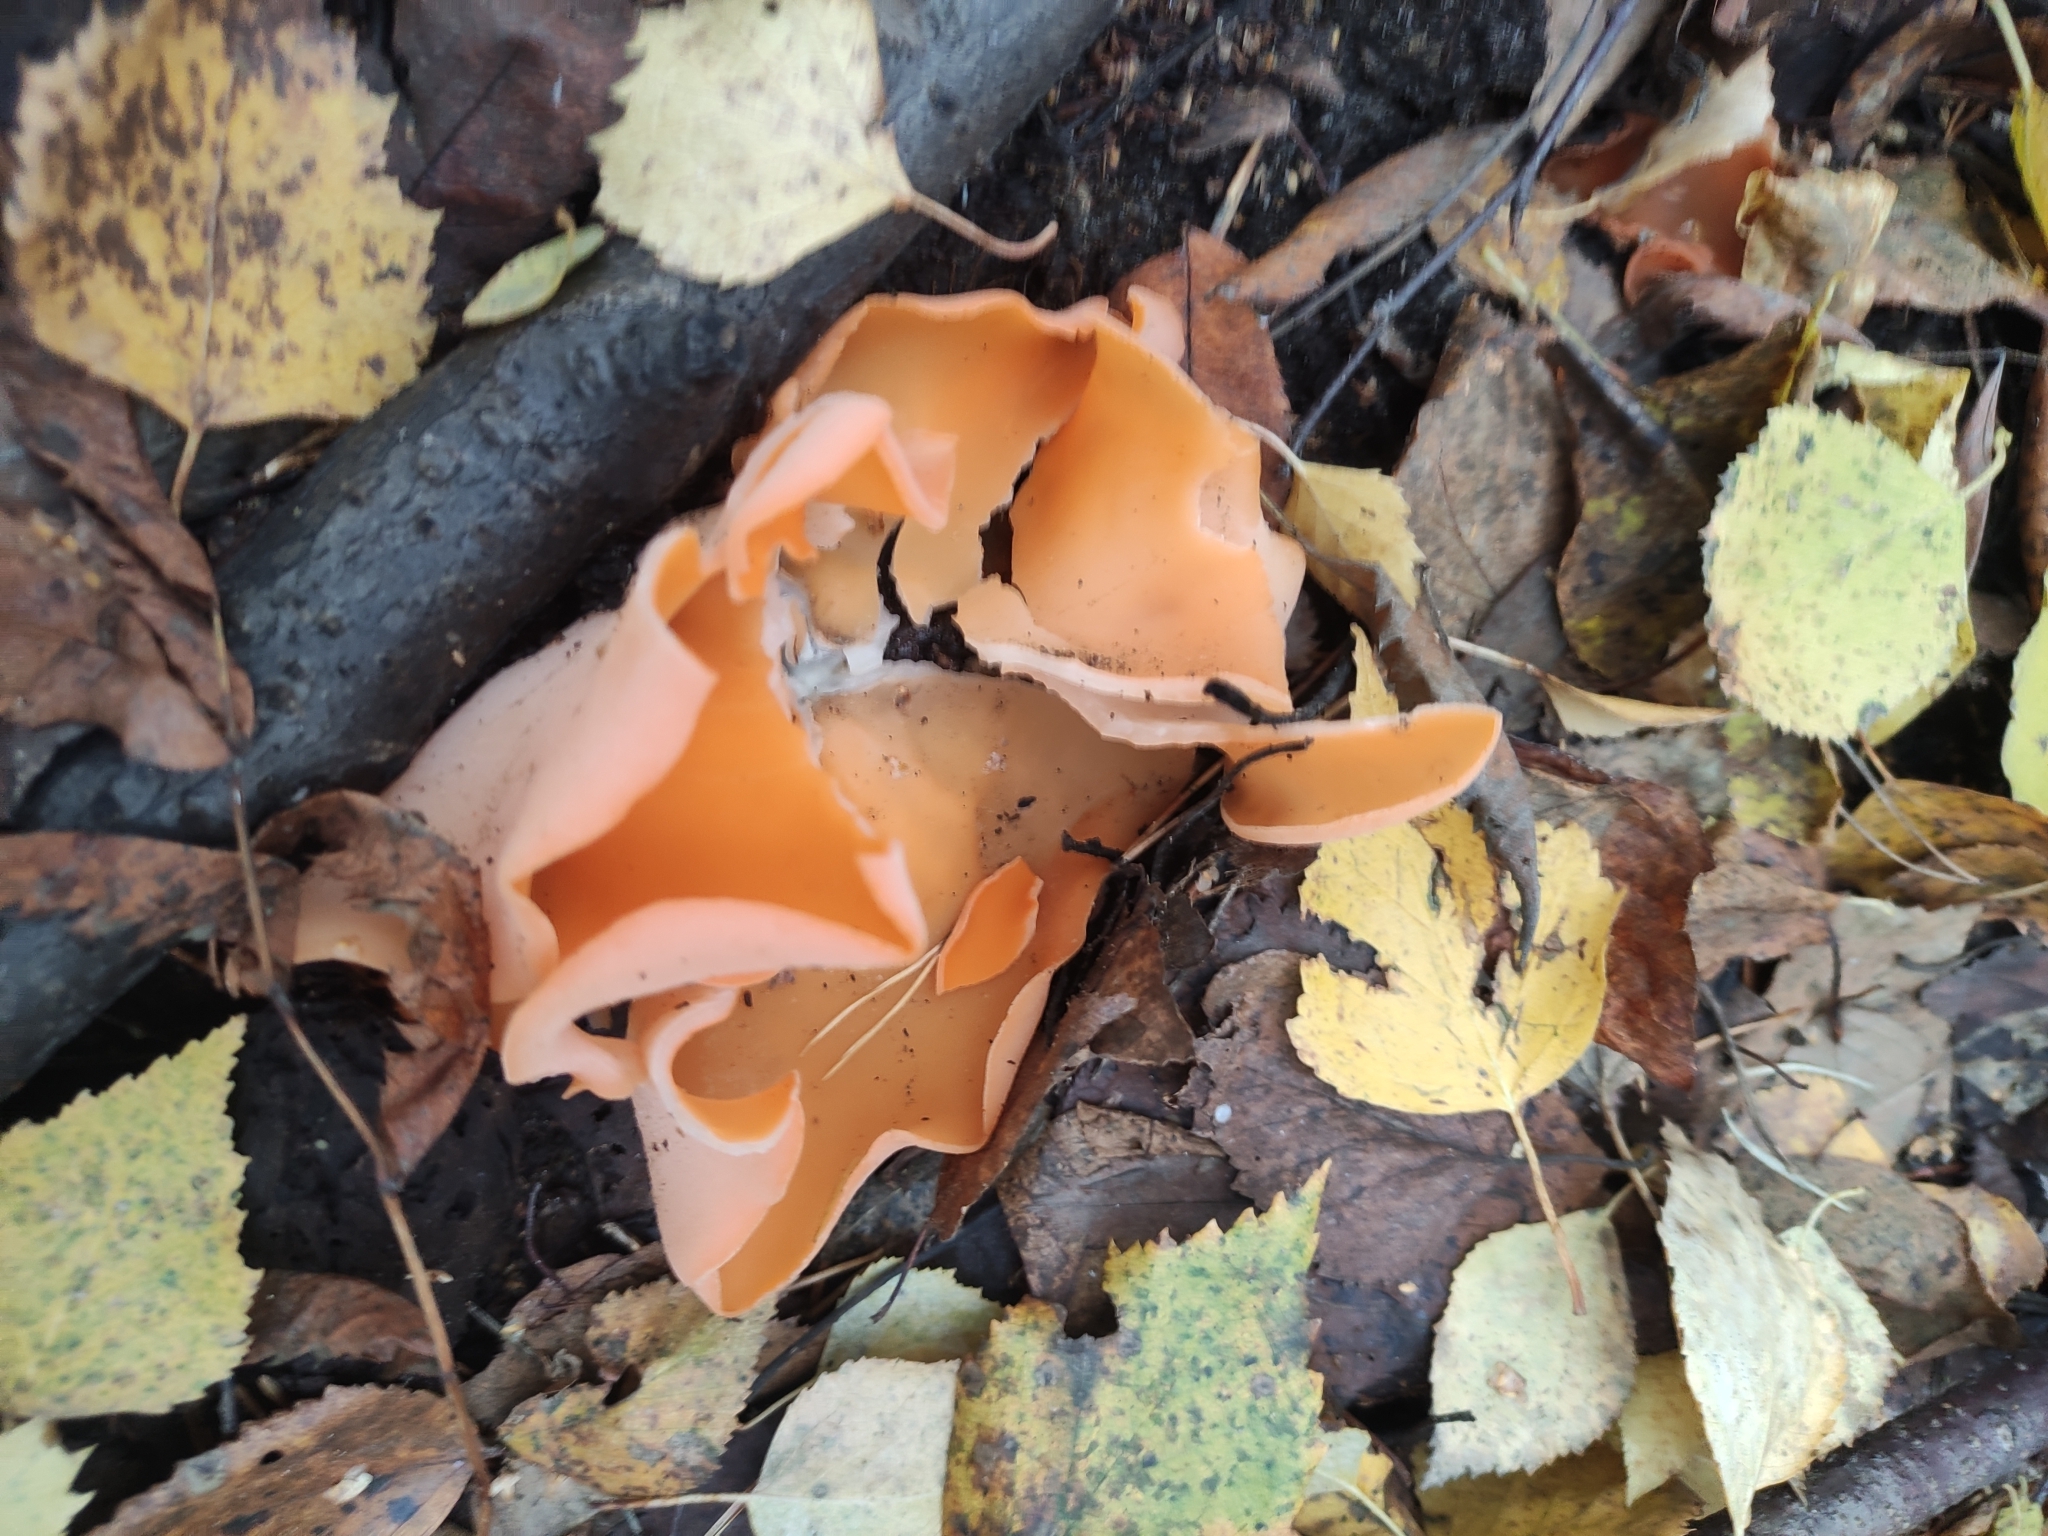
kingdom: Fungi
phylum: Ascomycota
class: Pezizomycetes
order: Pezizales
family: Pyronemataceae
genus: Aleuria
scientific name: Aleuria aurantia
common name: Orange peel fungus
